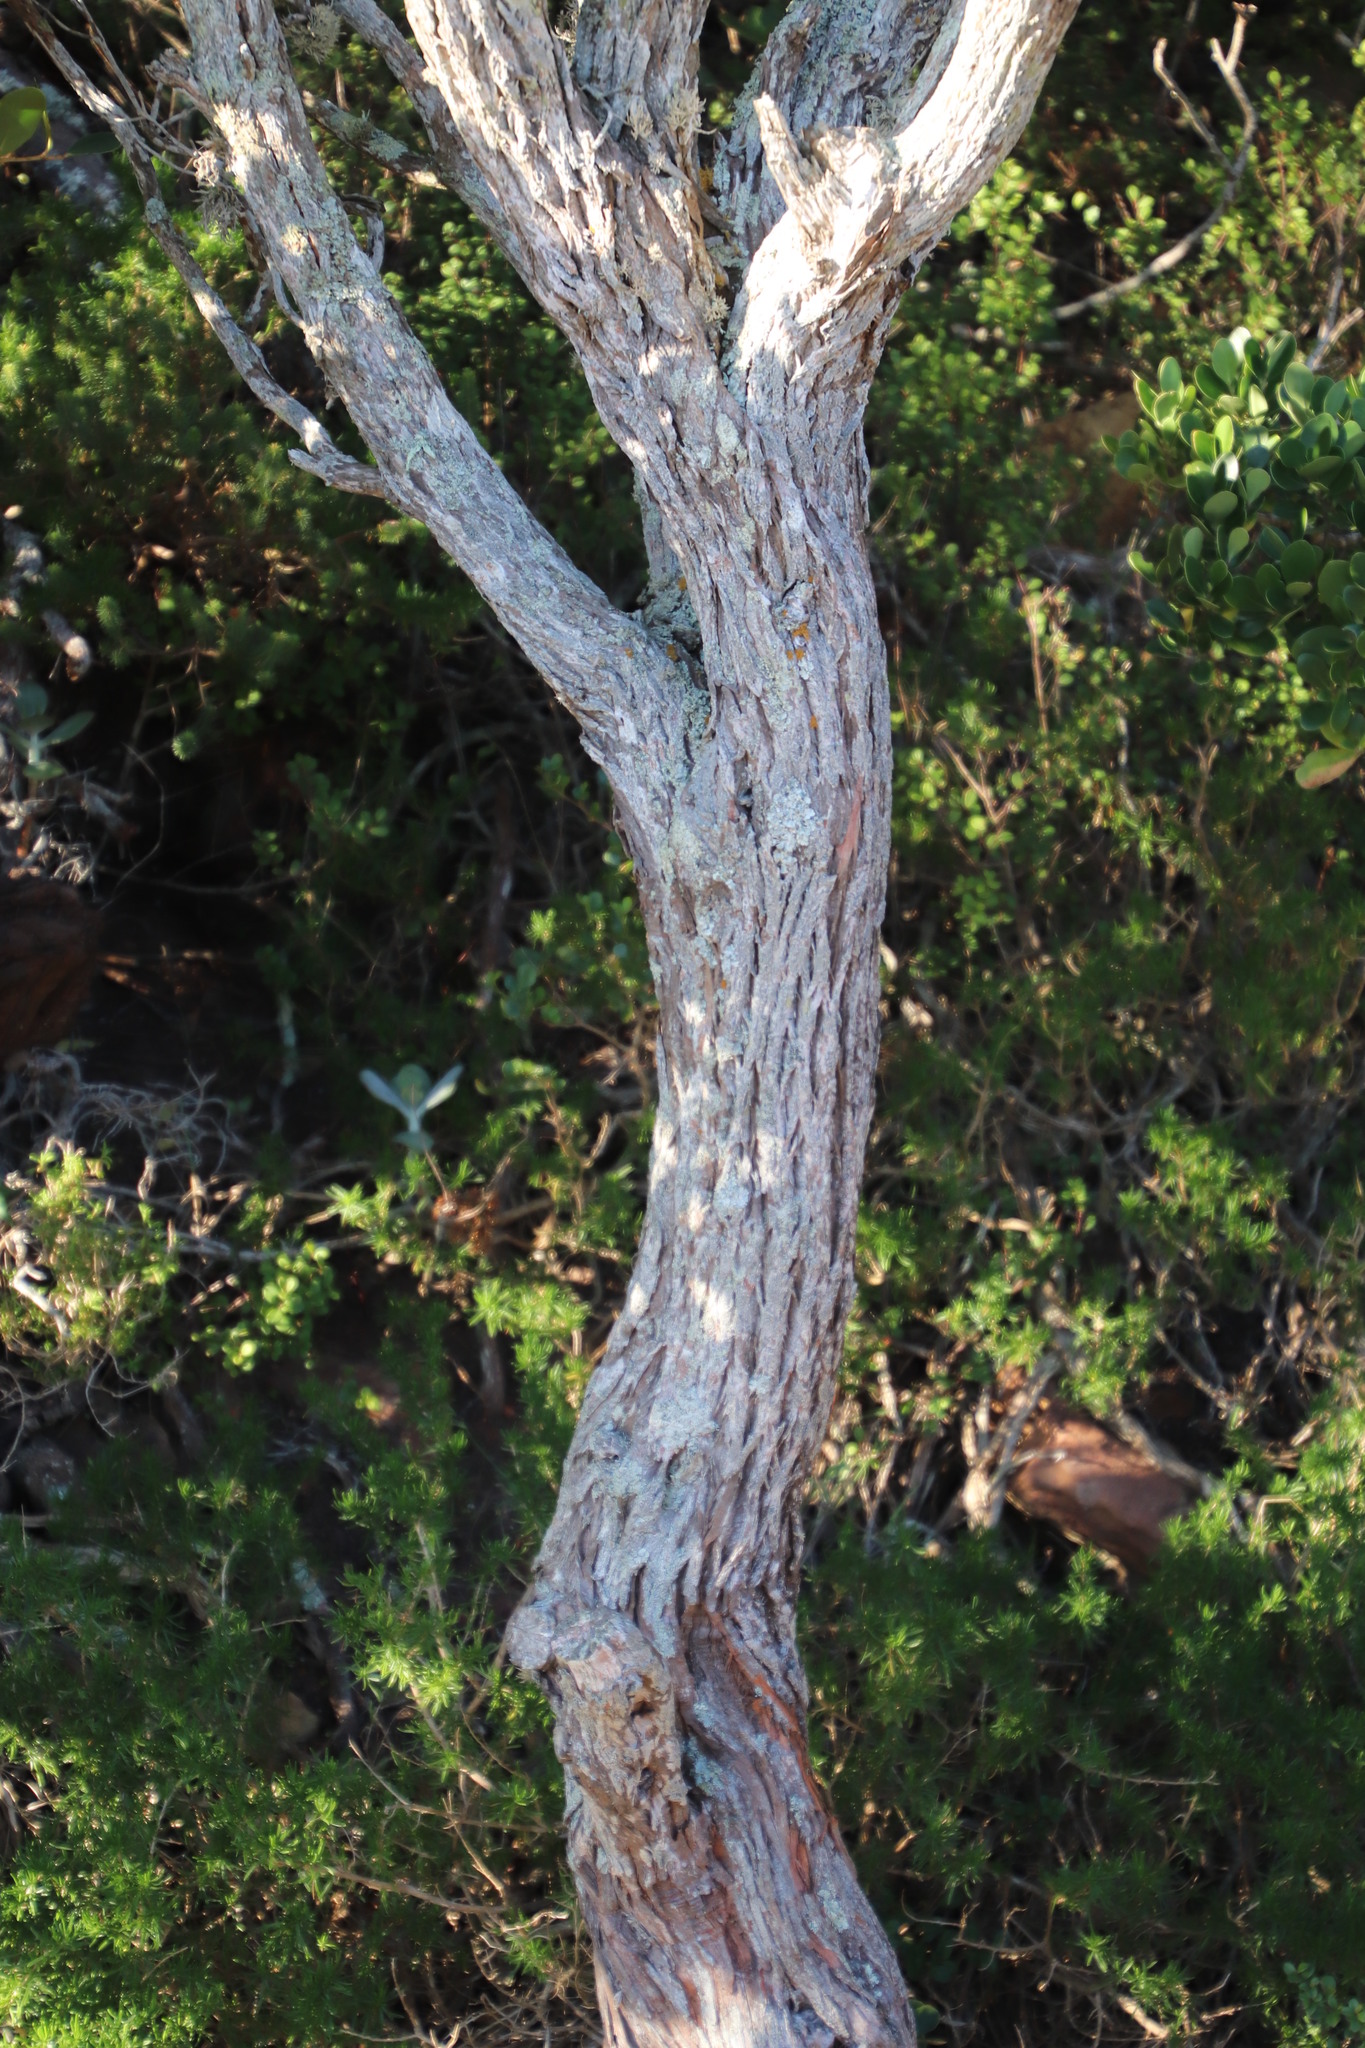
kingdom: Plantae
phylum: Tracheophyta
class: Magnoliopsida
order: Ericales
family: Ericaceae
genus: Erica
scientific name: Erica brachialis
